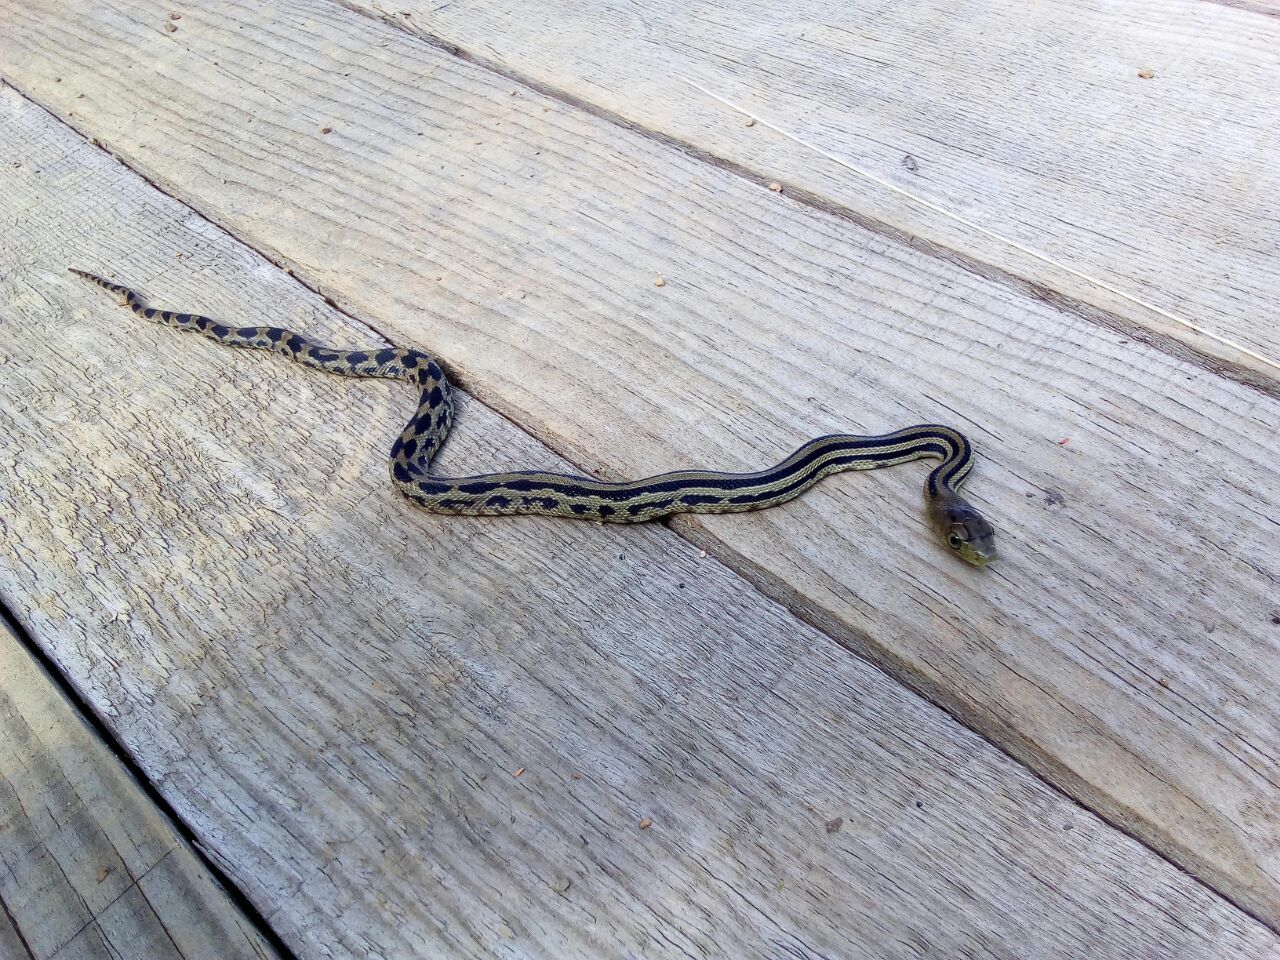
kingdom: Animalia
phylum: Chordata
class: Squamata
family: Colubridae
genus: Pituophis
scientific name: Pituophis lineaticollis
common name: Cincuate bull snake
